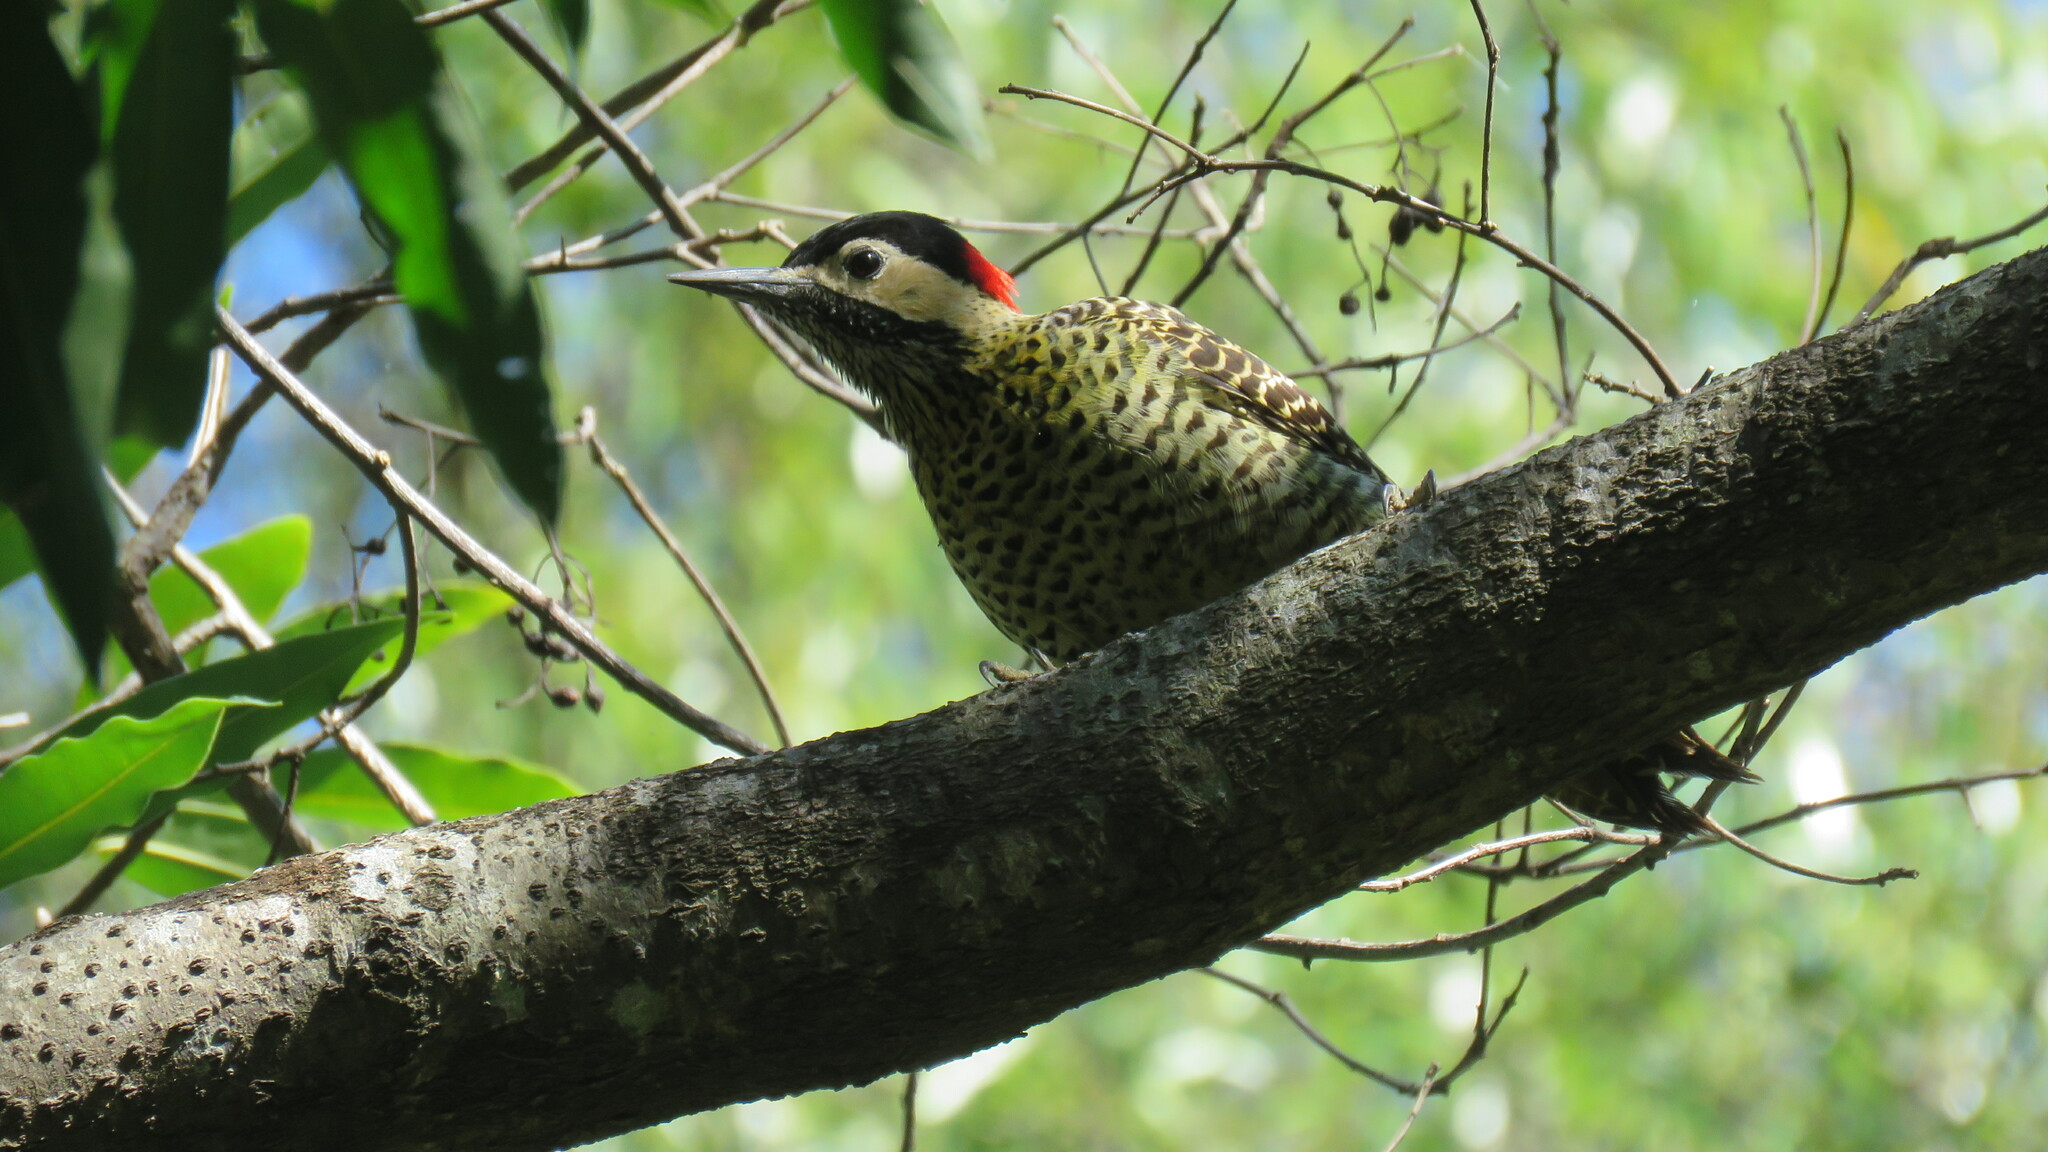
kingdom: Animalia
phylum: Chordata
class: Aves
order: Piciformes
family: Picidae
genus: Colaptes
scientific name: Colaptes melanochloros
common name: Green-barred woodpecker
